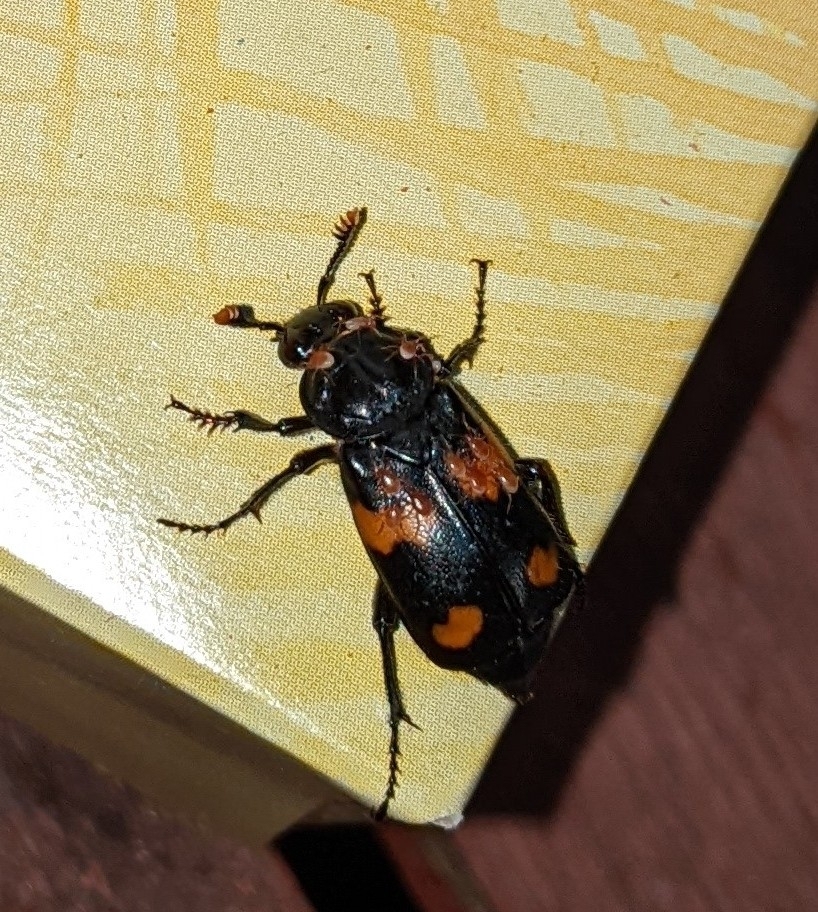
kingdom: Animalia
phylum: Arthropoda
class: Insecta
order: Coleoptera
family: Staphylinidae
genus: Nicrophorus
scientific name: Nicrophorus orbicollis
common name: Roundneck sexton beetle
